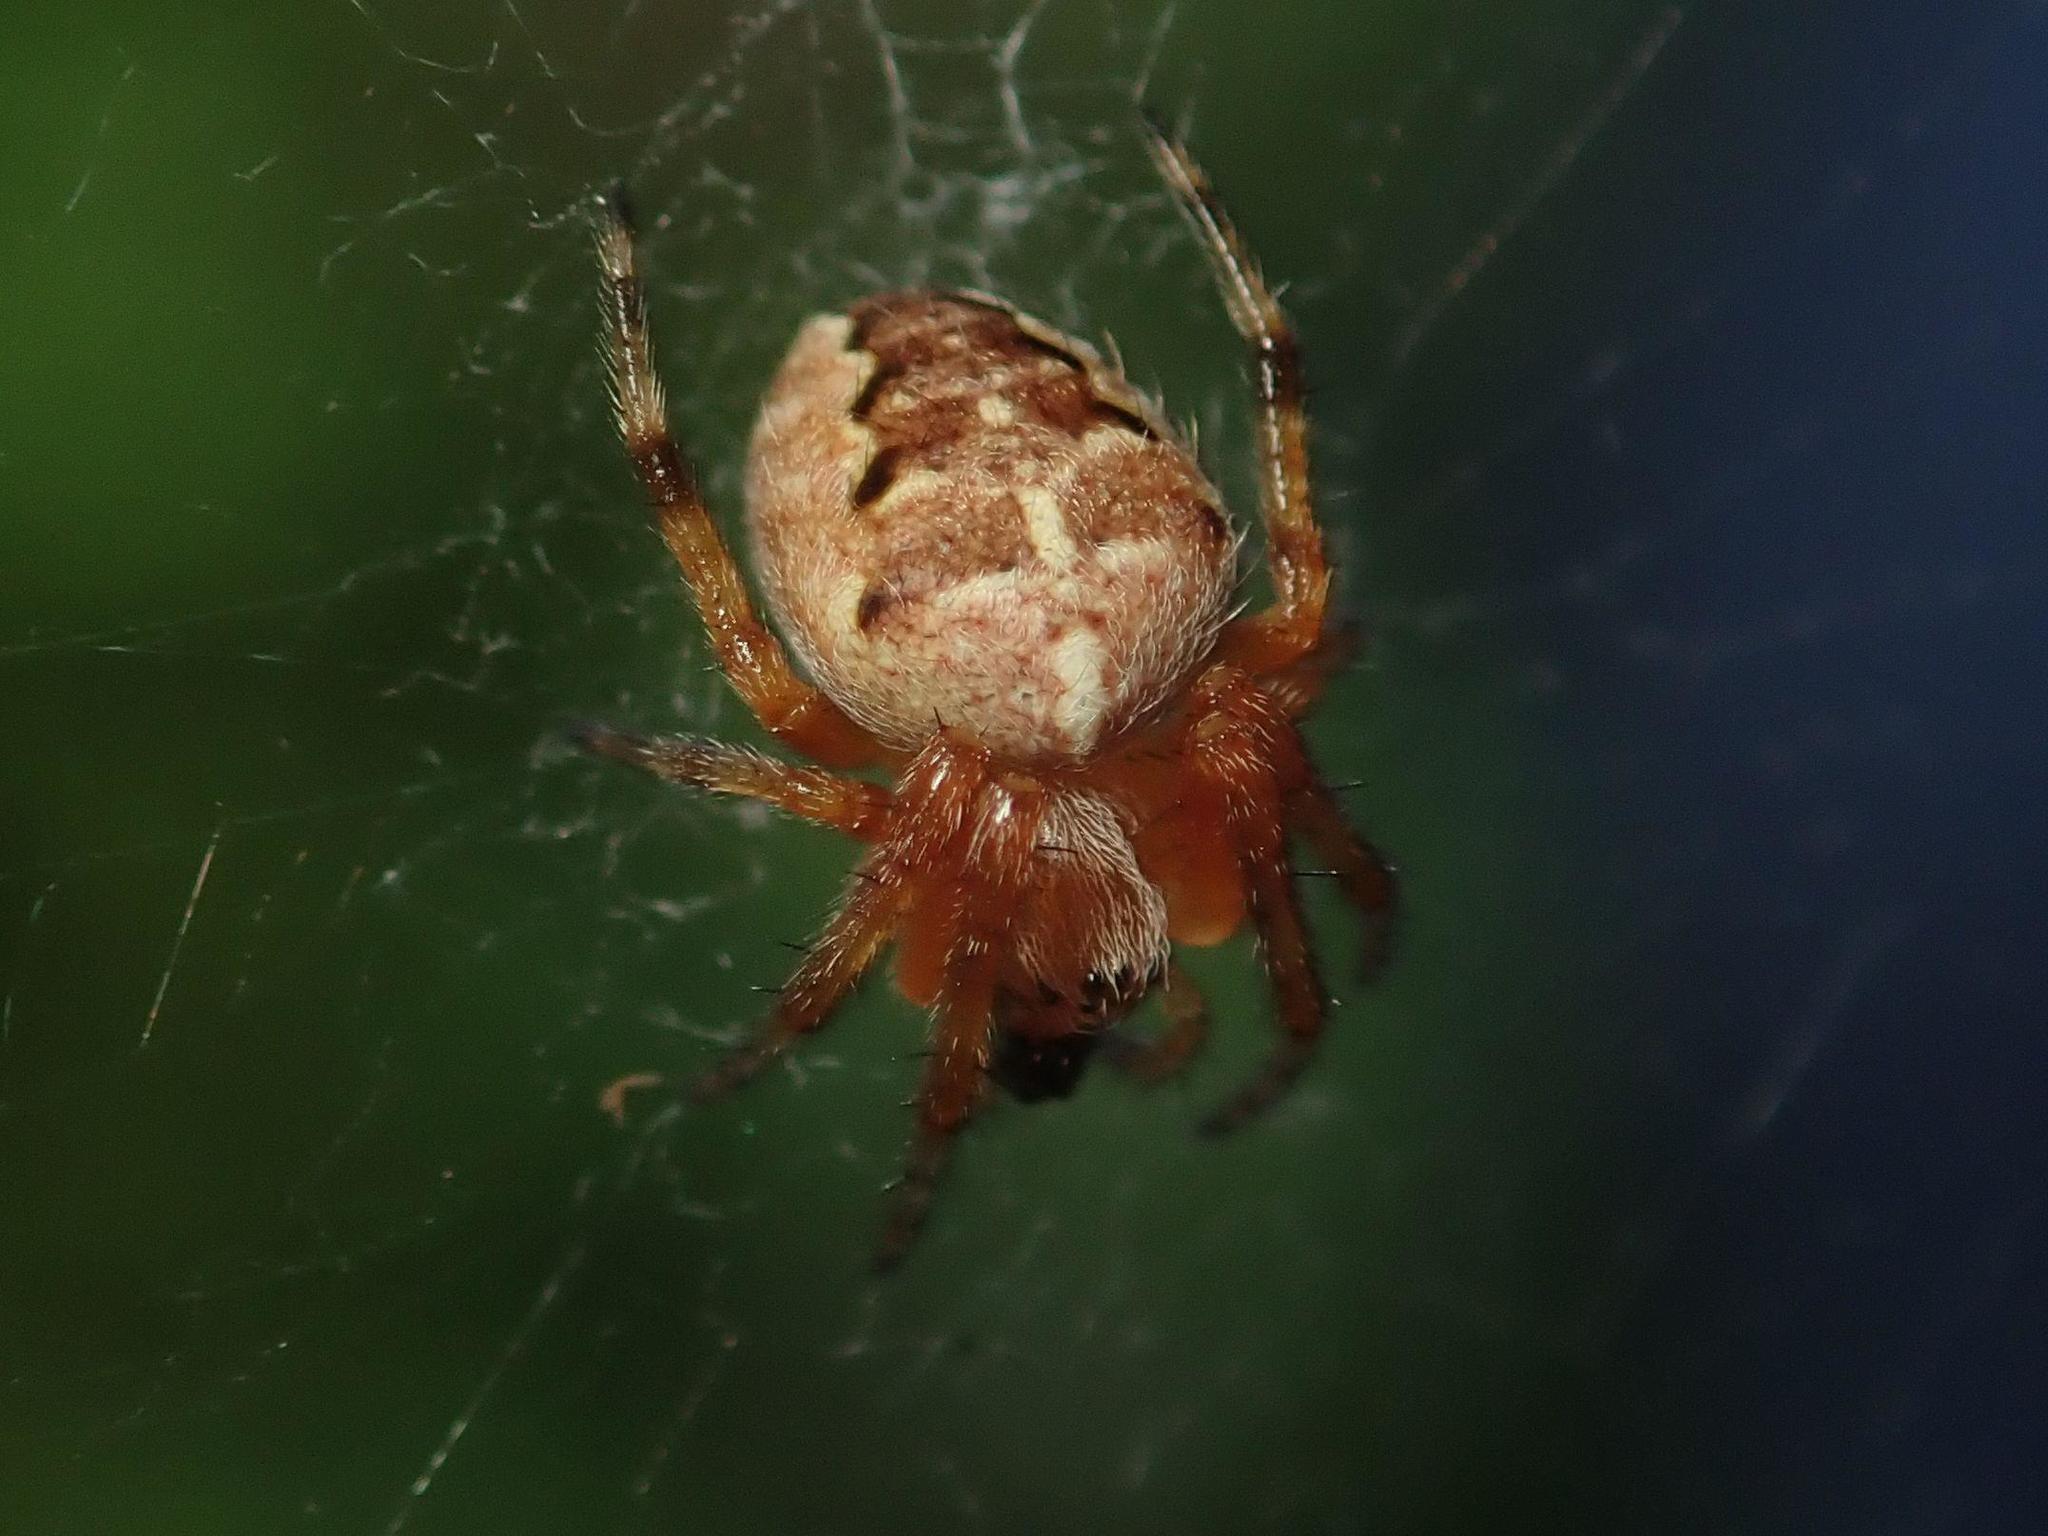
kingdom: Animalia
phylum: Arthropoda
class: Arachnida
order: Araneae
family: Araneidae
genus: Araneus
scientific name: Araneus diadematus
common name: Cross orbweaver
